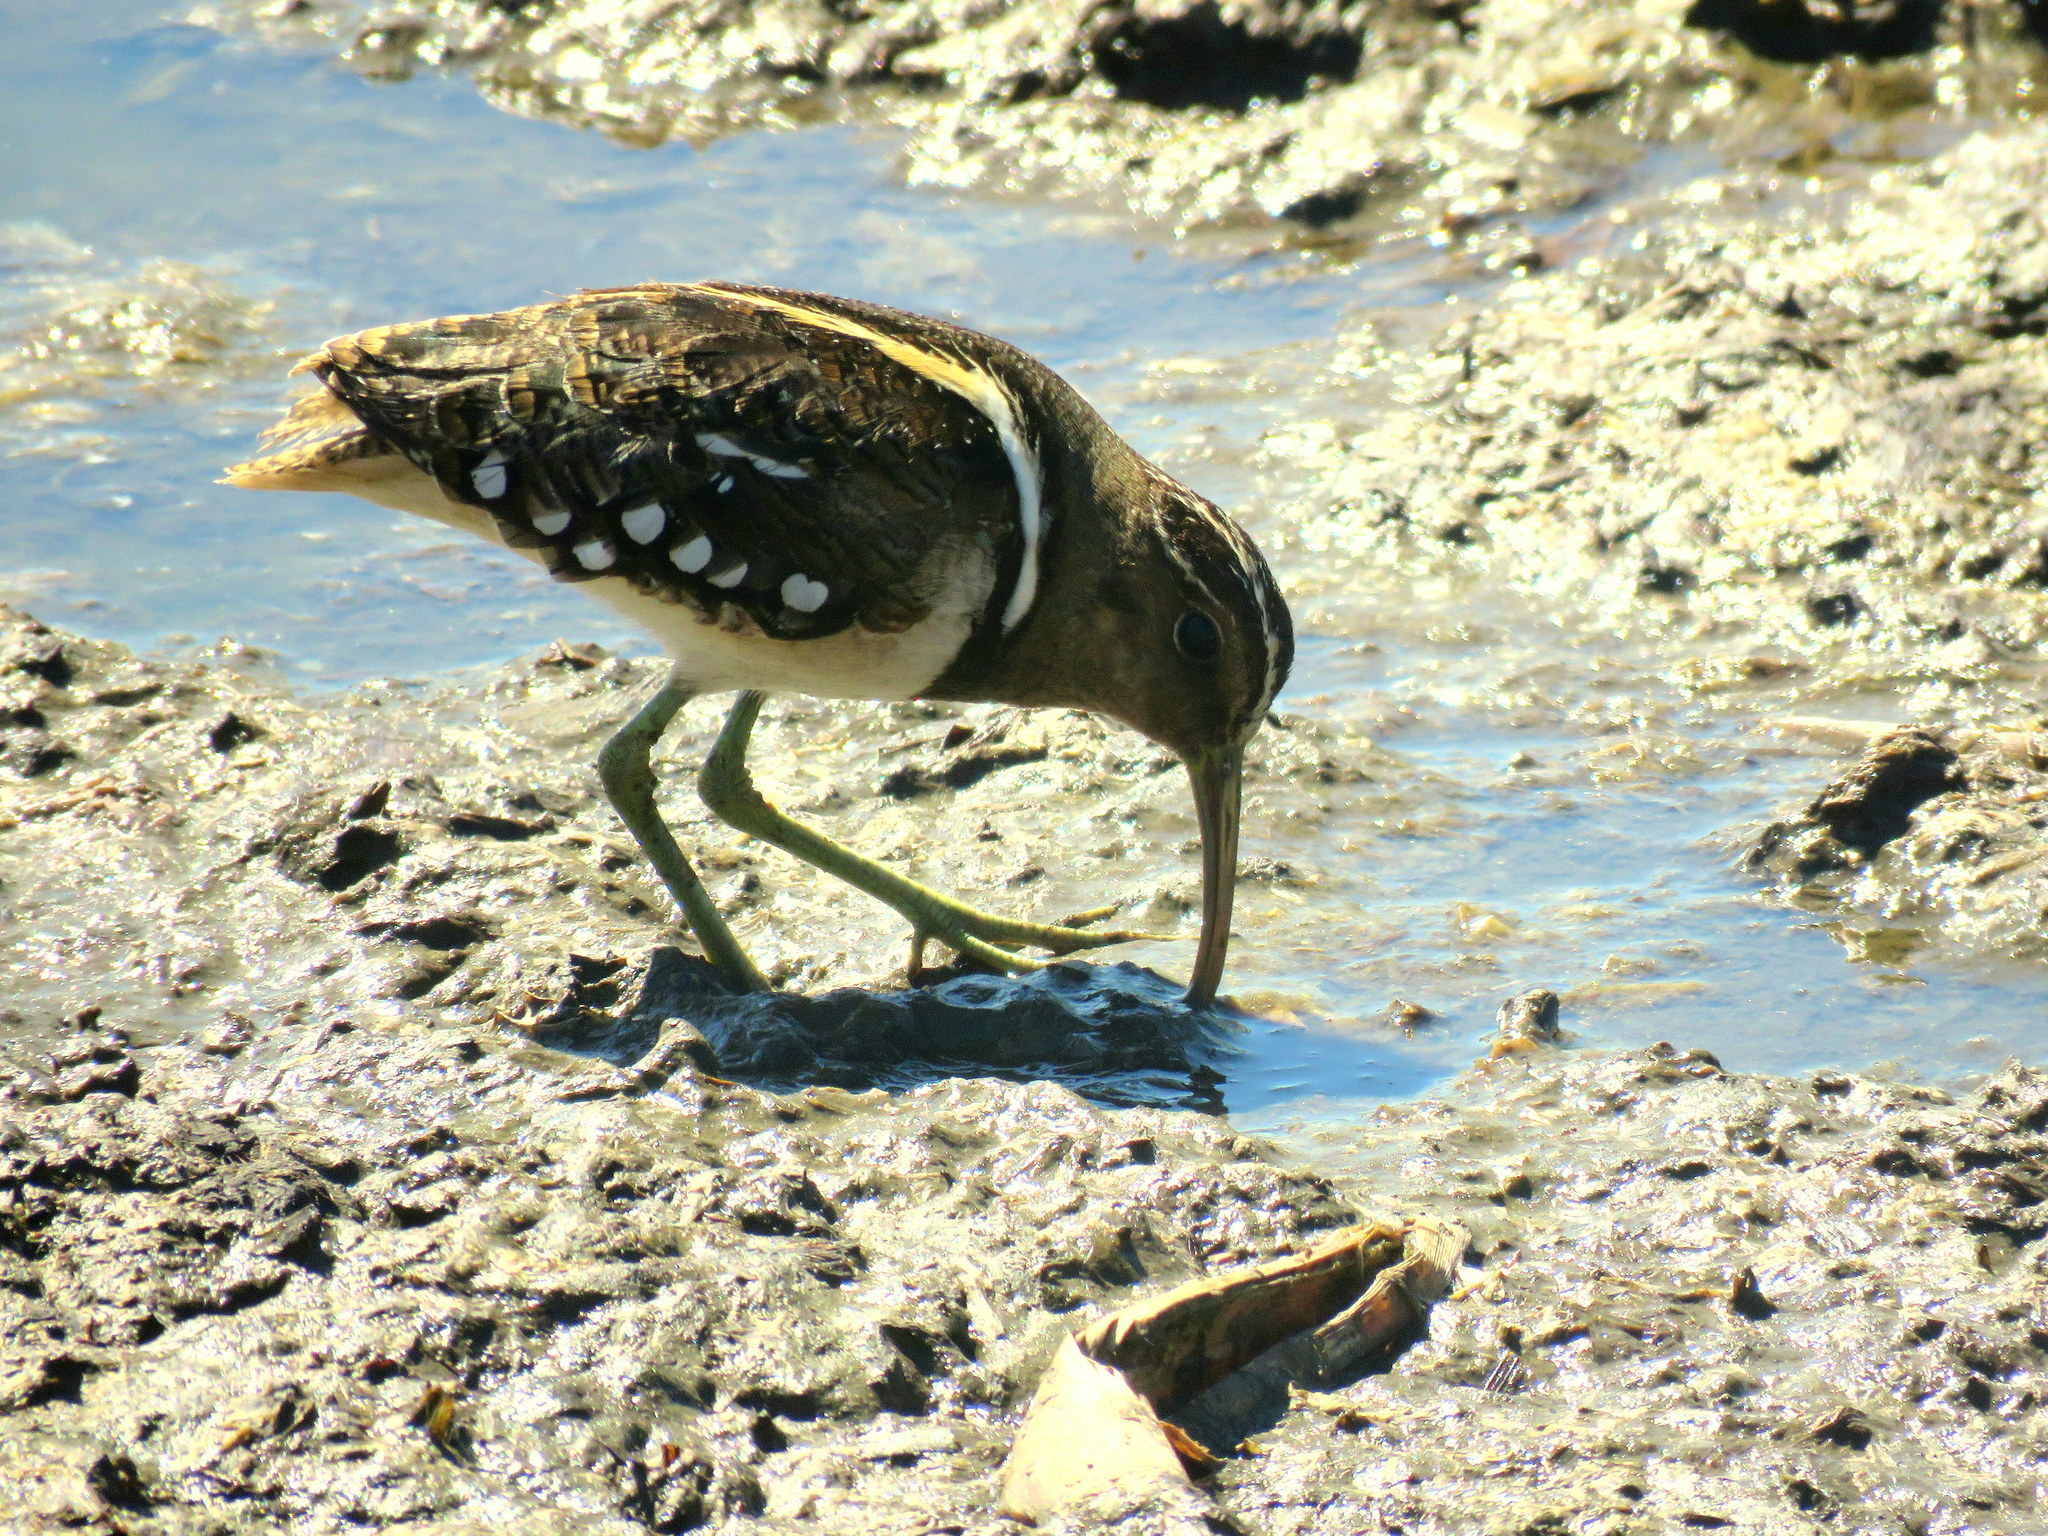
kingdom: Animalia
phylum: Chordata
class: Aves
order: Charadriiformes
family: Rostratulidae
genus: Nycticryphes
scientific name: Nycticryphes semicollaris
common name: South american painted-snipe
